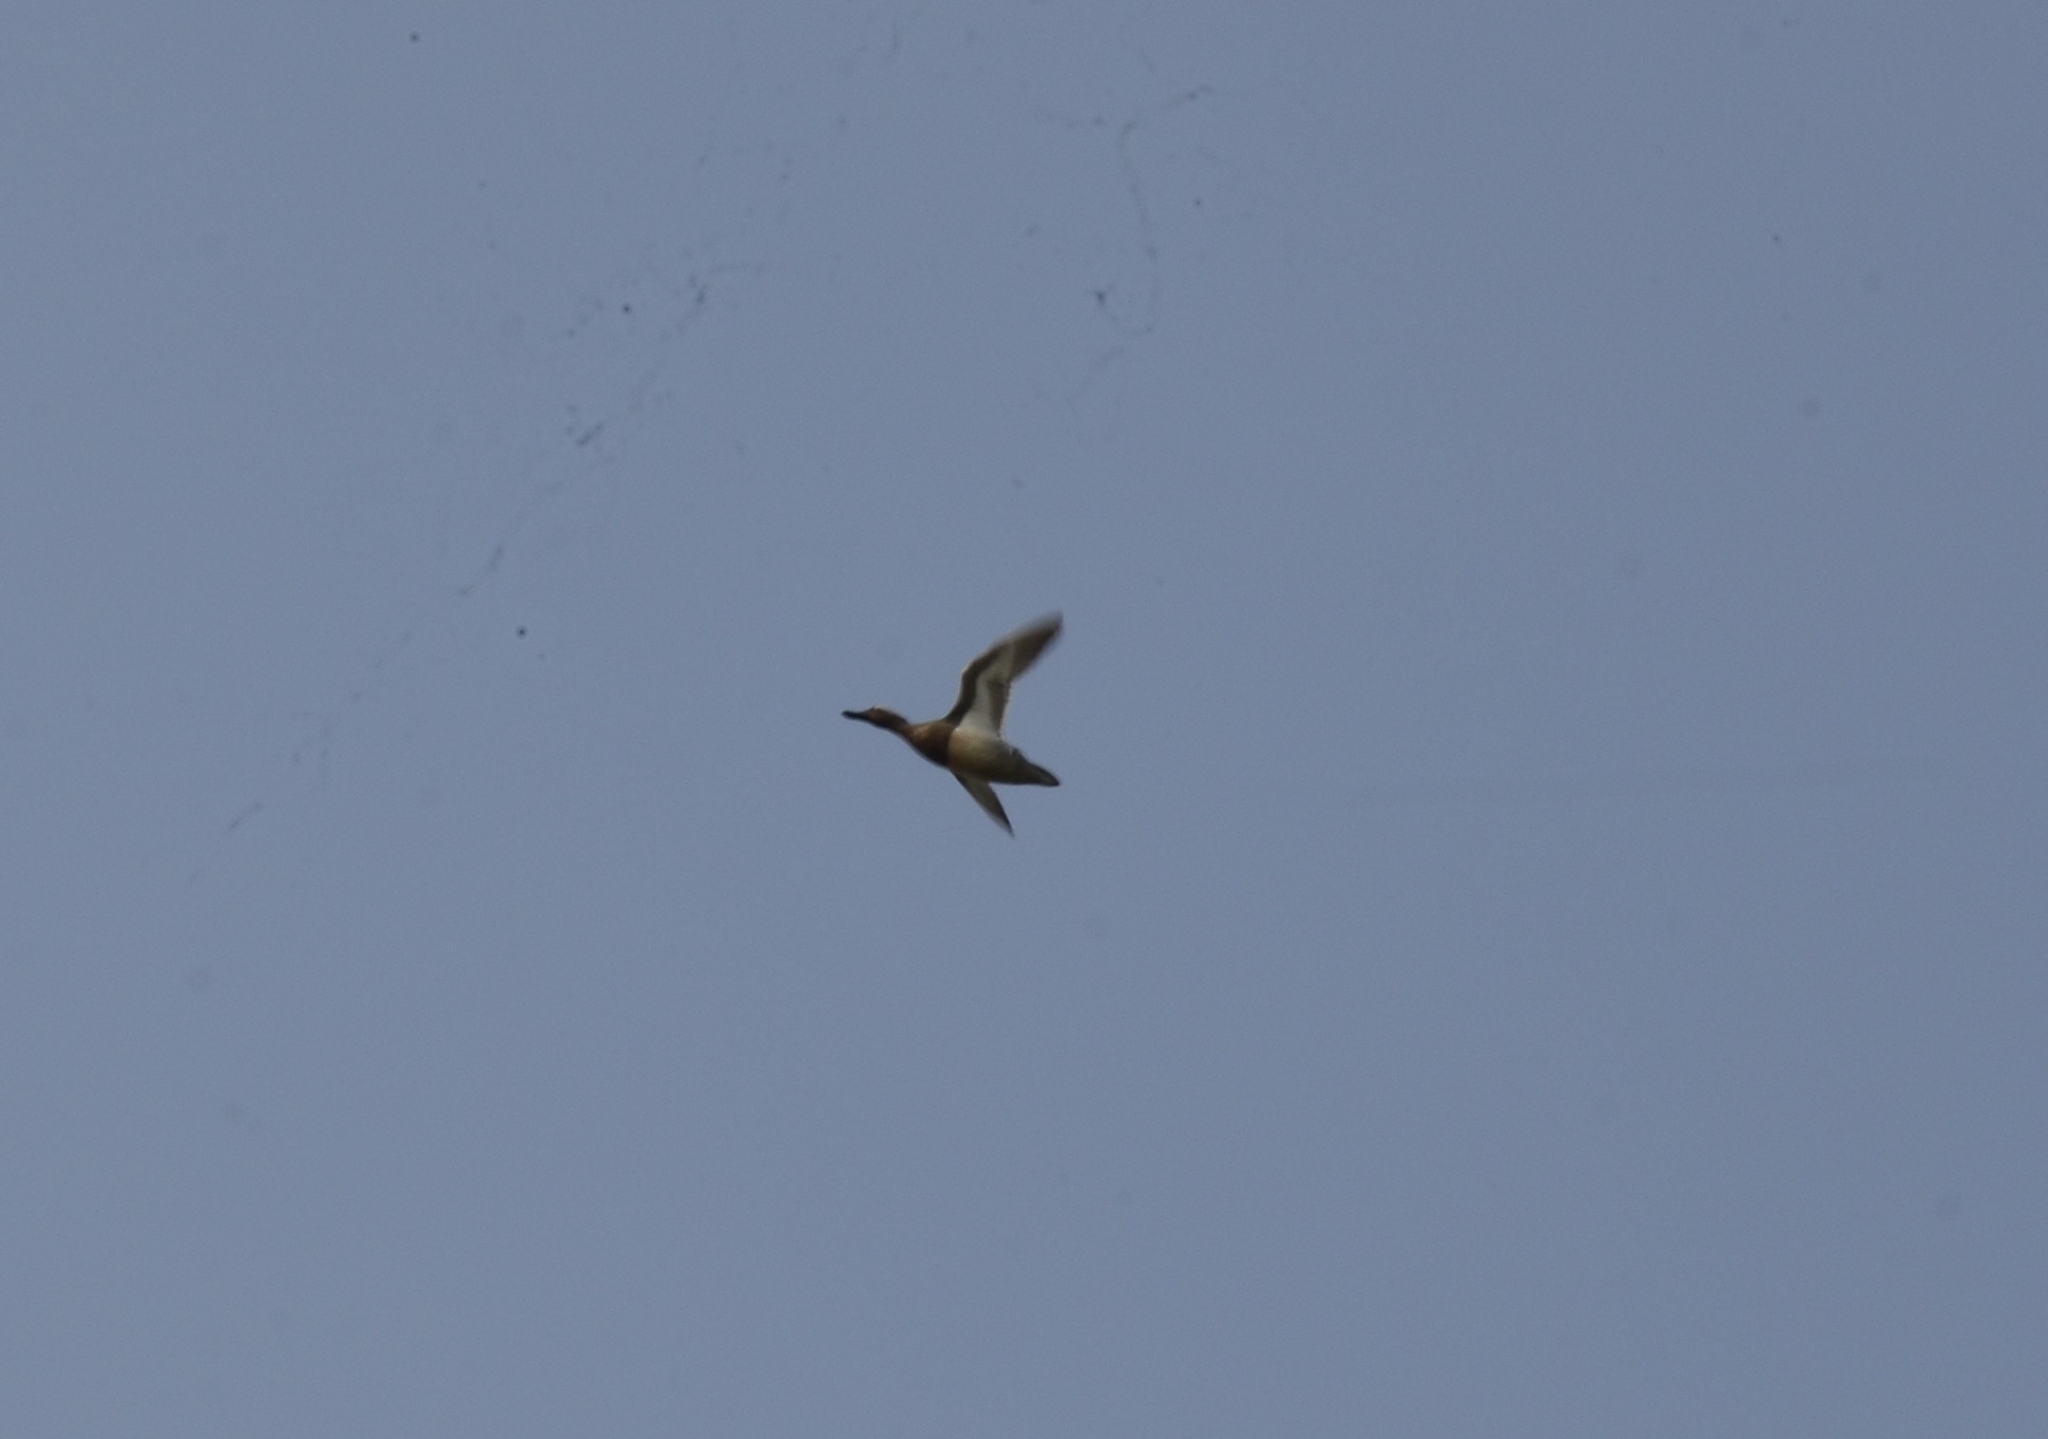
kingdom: Animalia
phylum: Chordata
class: Aves
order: Anseriformes
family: Anatidae
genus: Spatula
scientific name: Spatula querquedula
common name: Garganey
